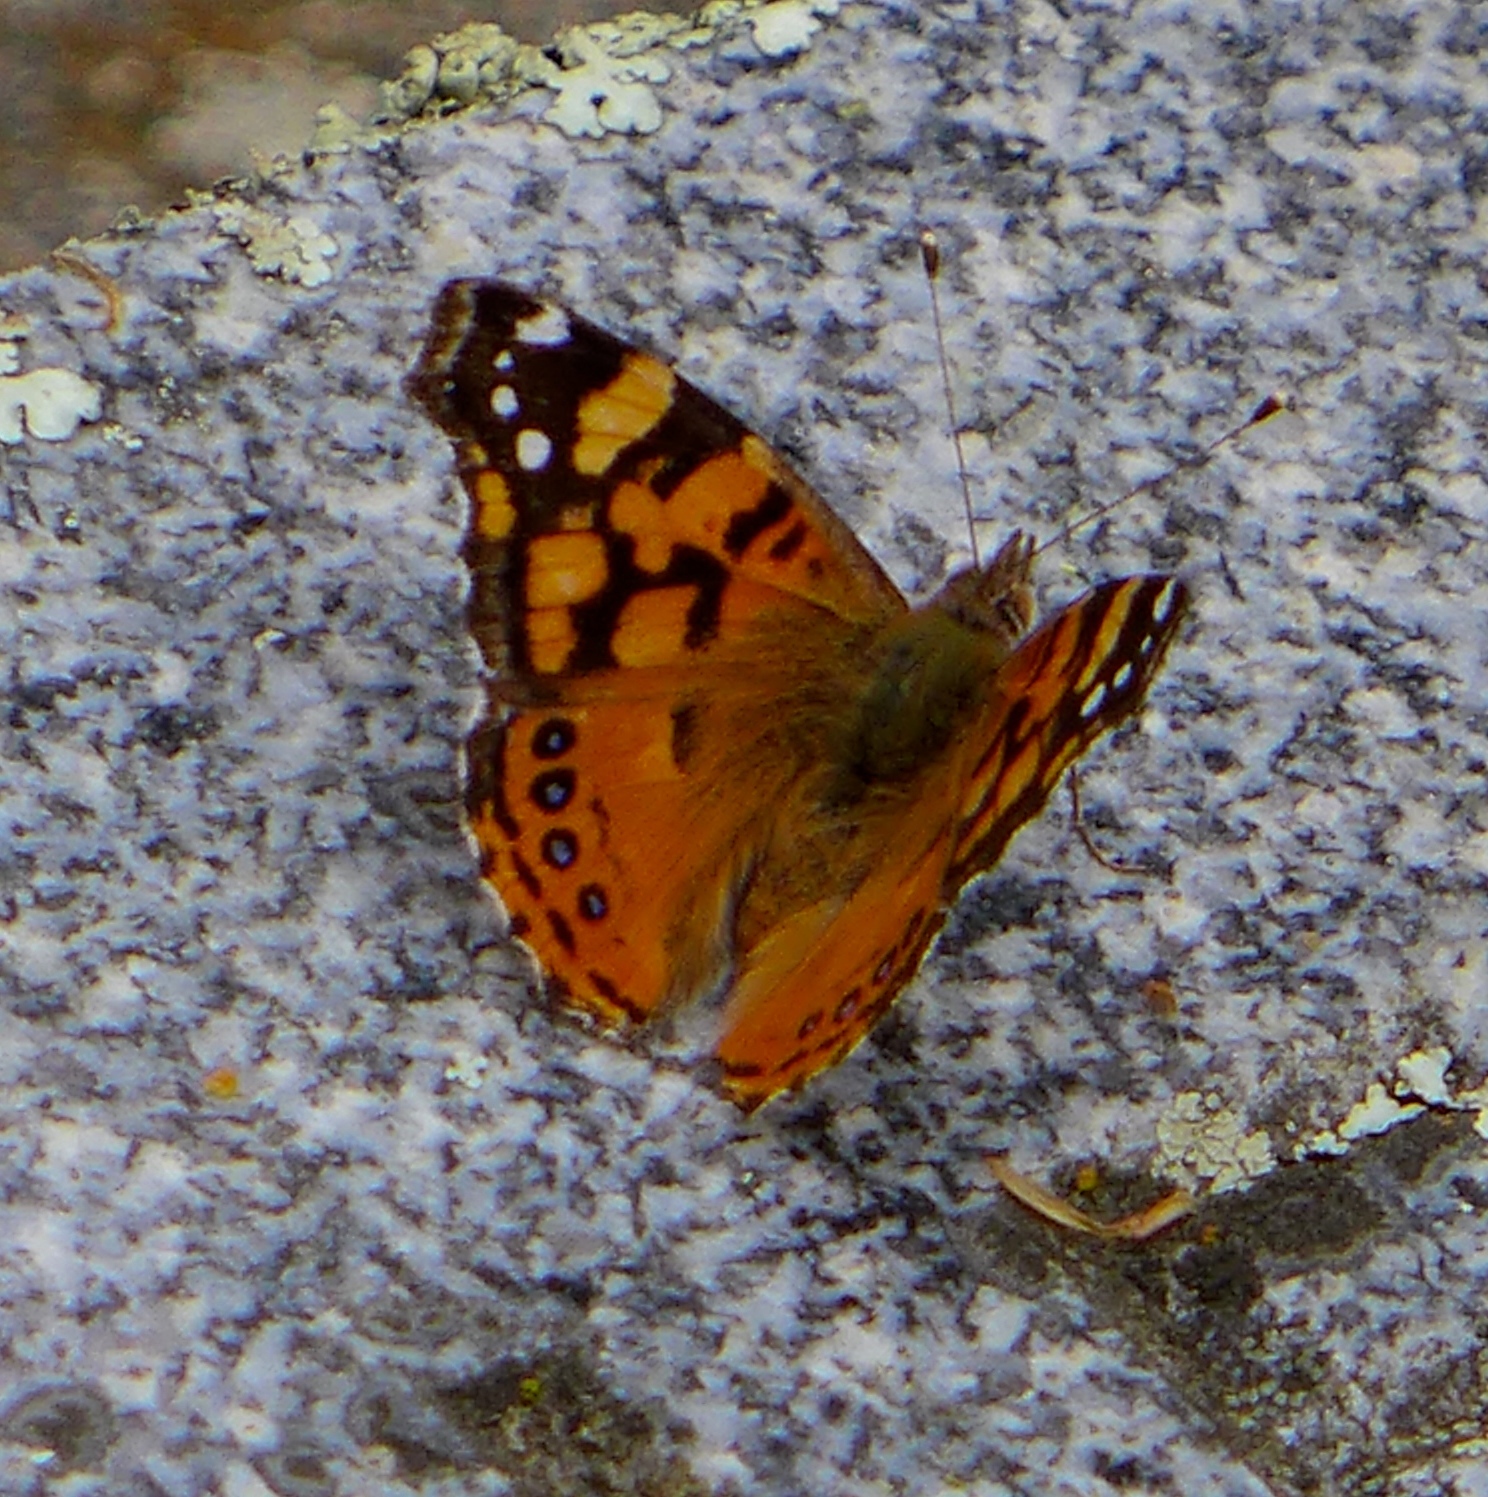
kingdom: Animalia
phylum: Arthropoda
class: Insecta
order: Lepidoptera
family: Nymphalidae
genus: Vanessa
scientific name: Vanessa annabella
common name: West coast lady
